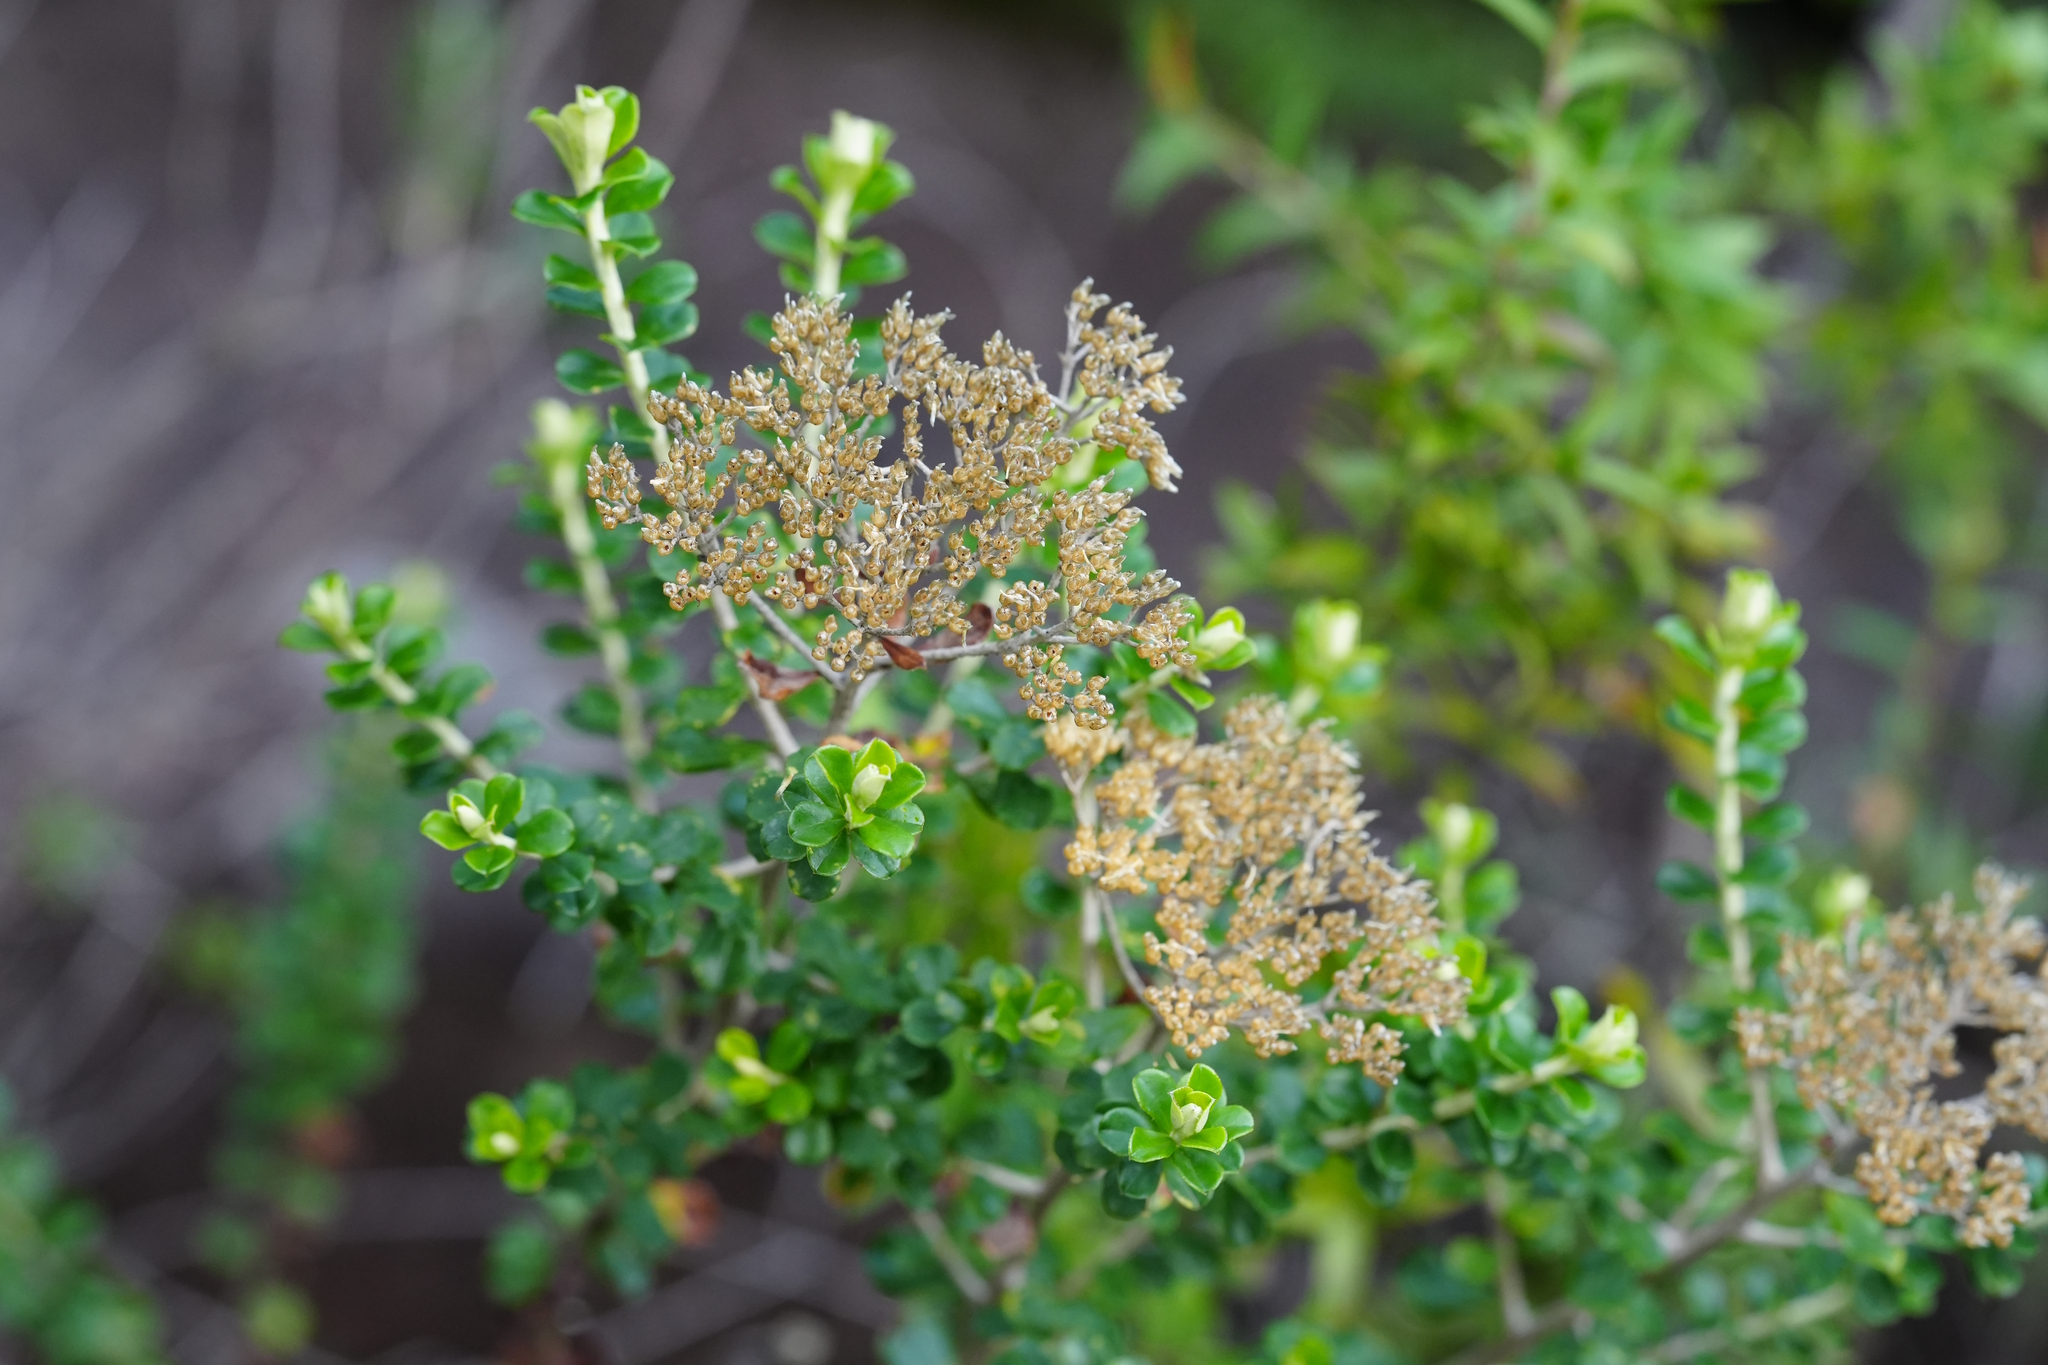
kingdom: Plantae
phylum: Tracheophyta
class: Magnoliopsida
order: Asterales
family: Asteraceae
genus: Ozothamnus
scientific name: Ozothamnus obcordatus
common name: Grey everlasting
